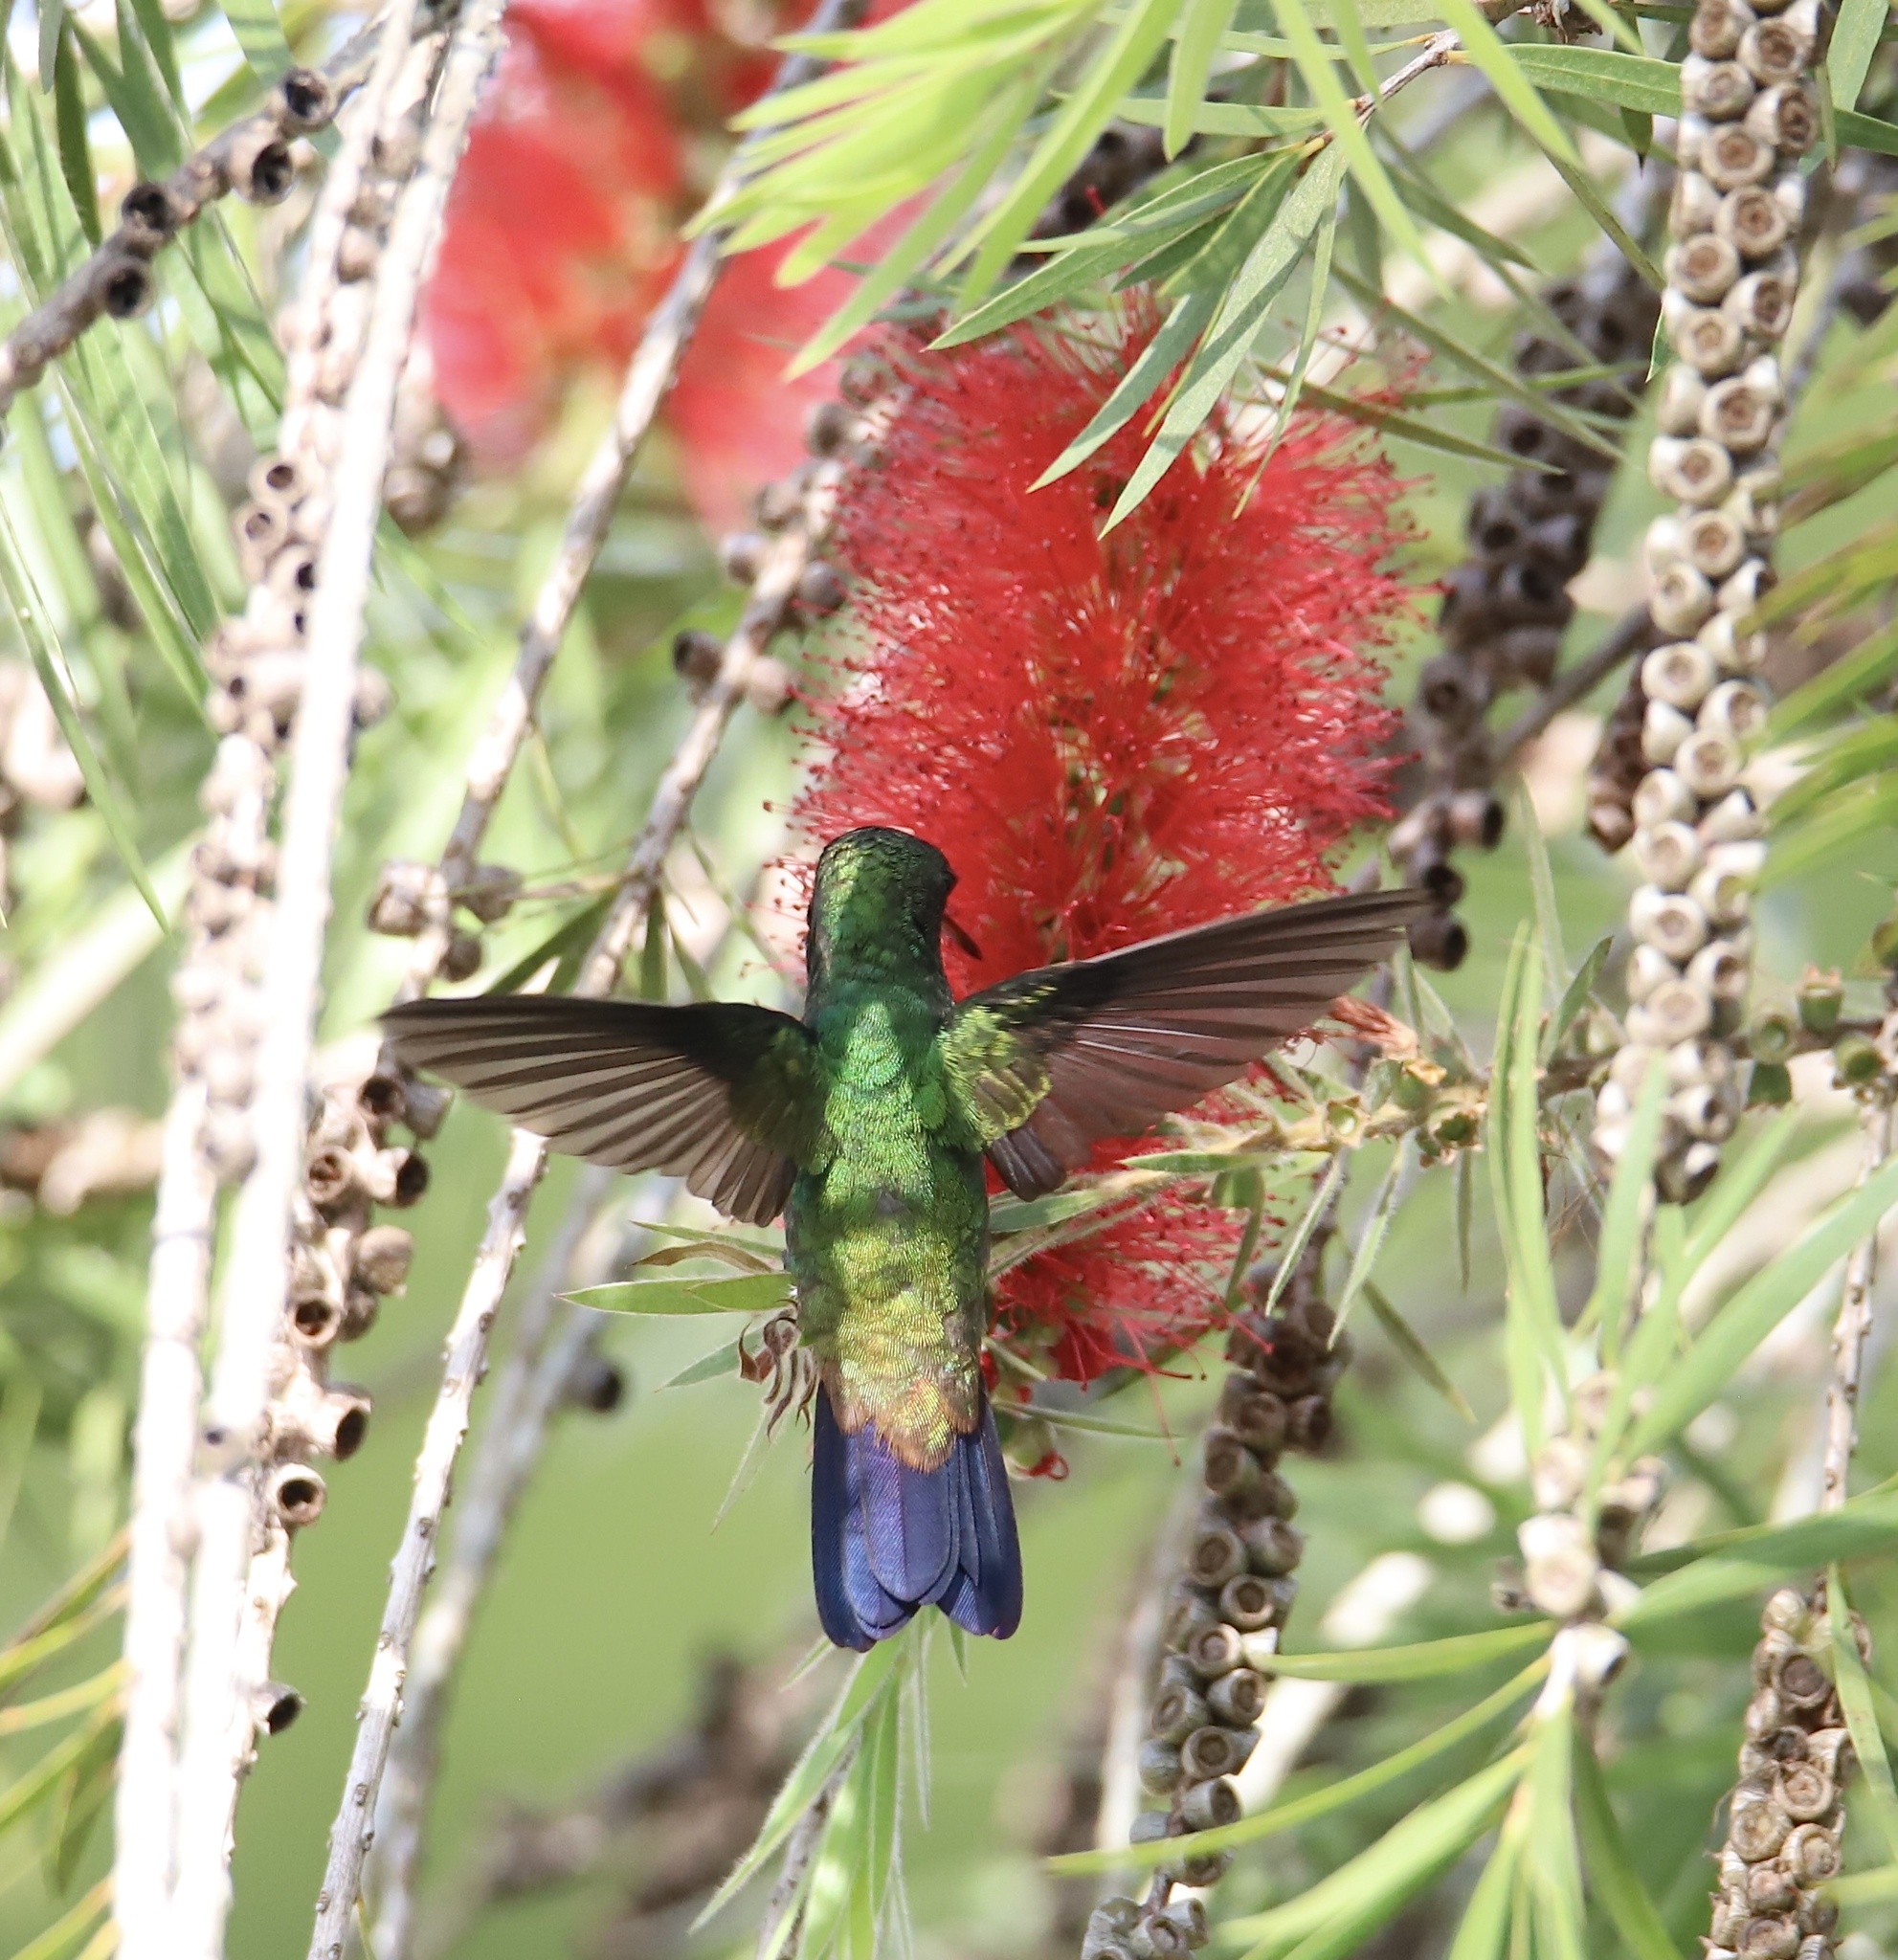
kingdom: Animalia
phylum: Chordata
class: Aves
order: Apodiformes
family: Trochilidae
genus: Saucerottia
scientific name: Saucerottia tobaci
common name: Copper-rumped hummingbird
